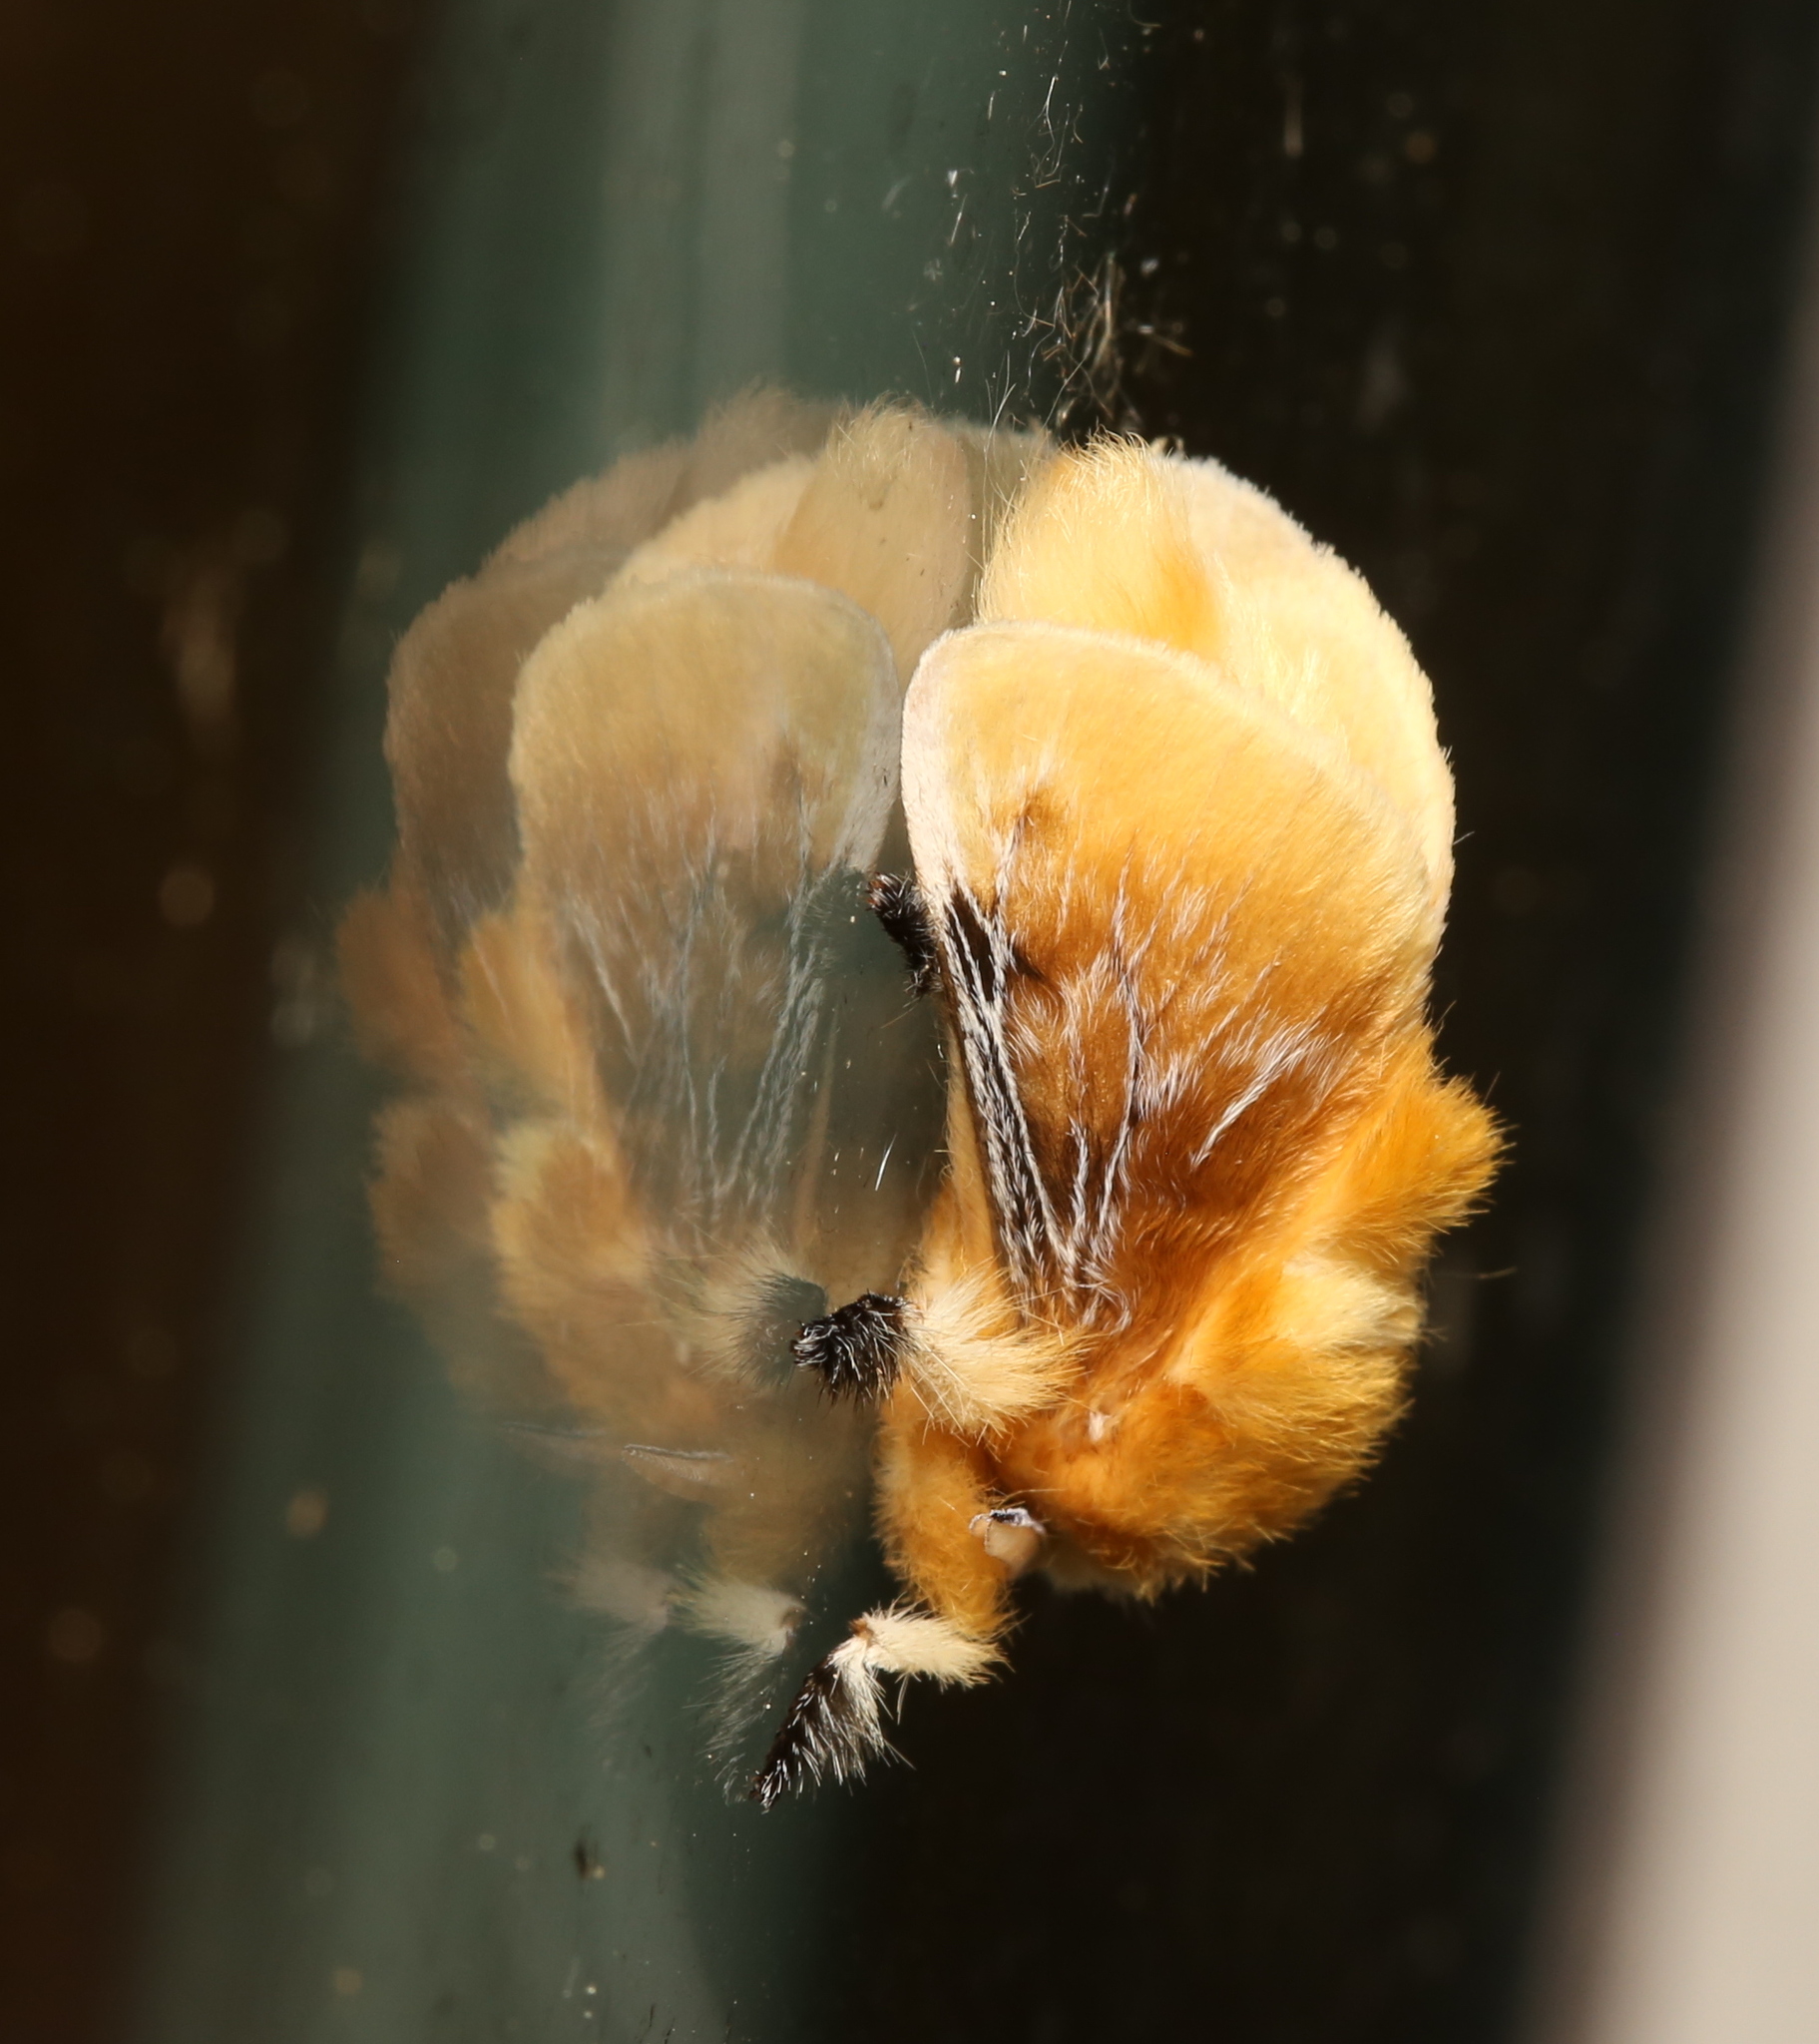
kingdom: Animalia
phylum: Arthropoda
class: Insecta
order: Lepidoptera
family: Megalopygidae
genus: Megalopyge
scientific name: Megalopyge opercularis
